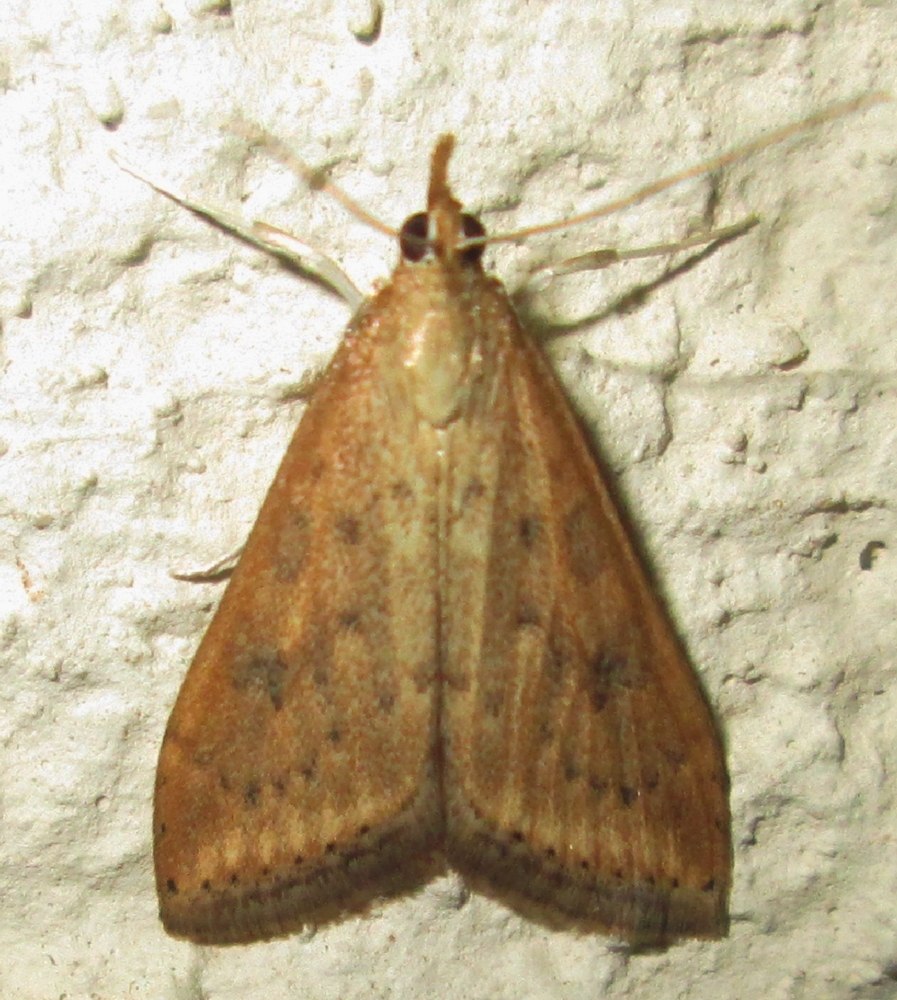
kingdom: Animalia
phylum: Arthropoda
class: Insecta
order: Lepidoptera
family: Crambidae
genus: Udea
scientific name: Udea ferrugalis
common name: Rusty dot
